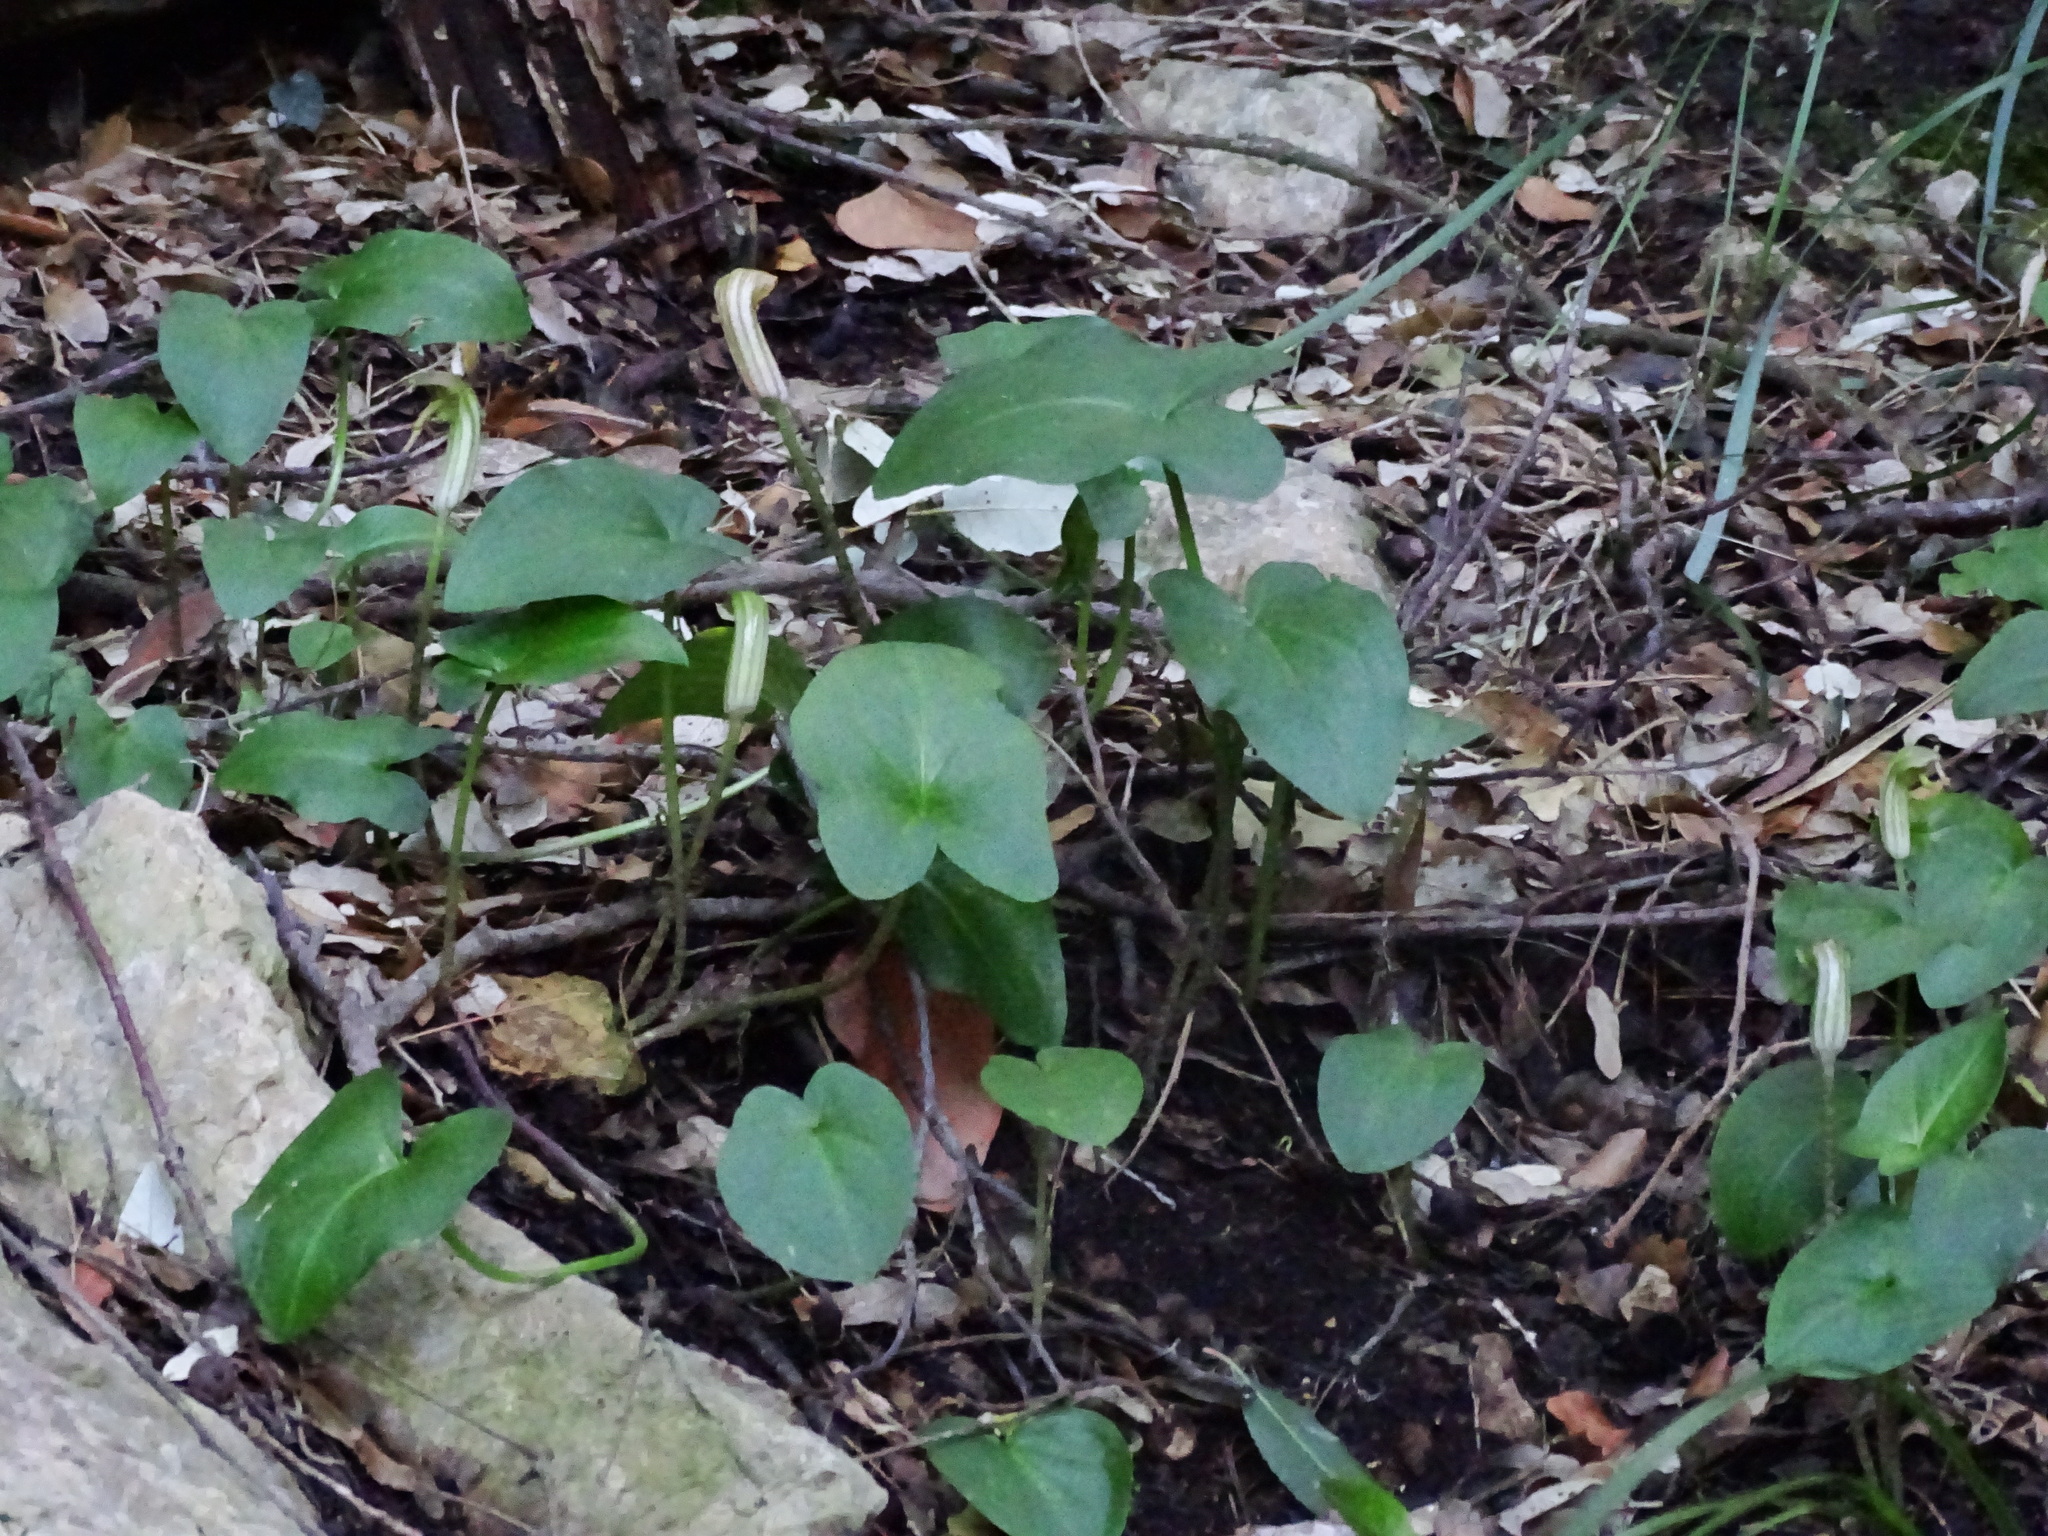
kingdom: Plantae
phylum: Tracheophyta
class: Liliopsida
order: Alismatales
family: Araceae
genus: Arisarum
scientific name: Arisarum vulgare
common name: Common arisarum
